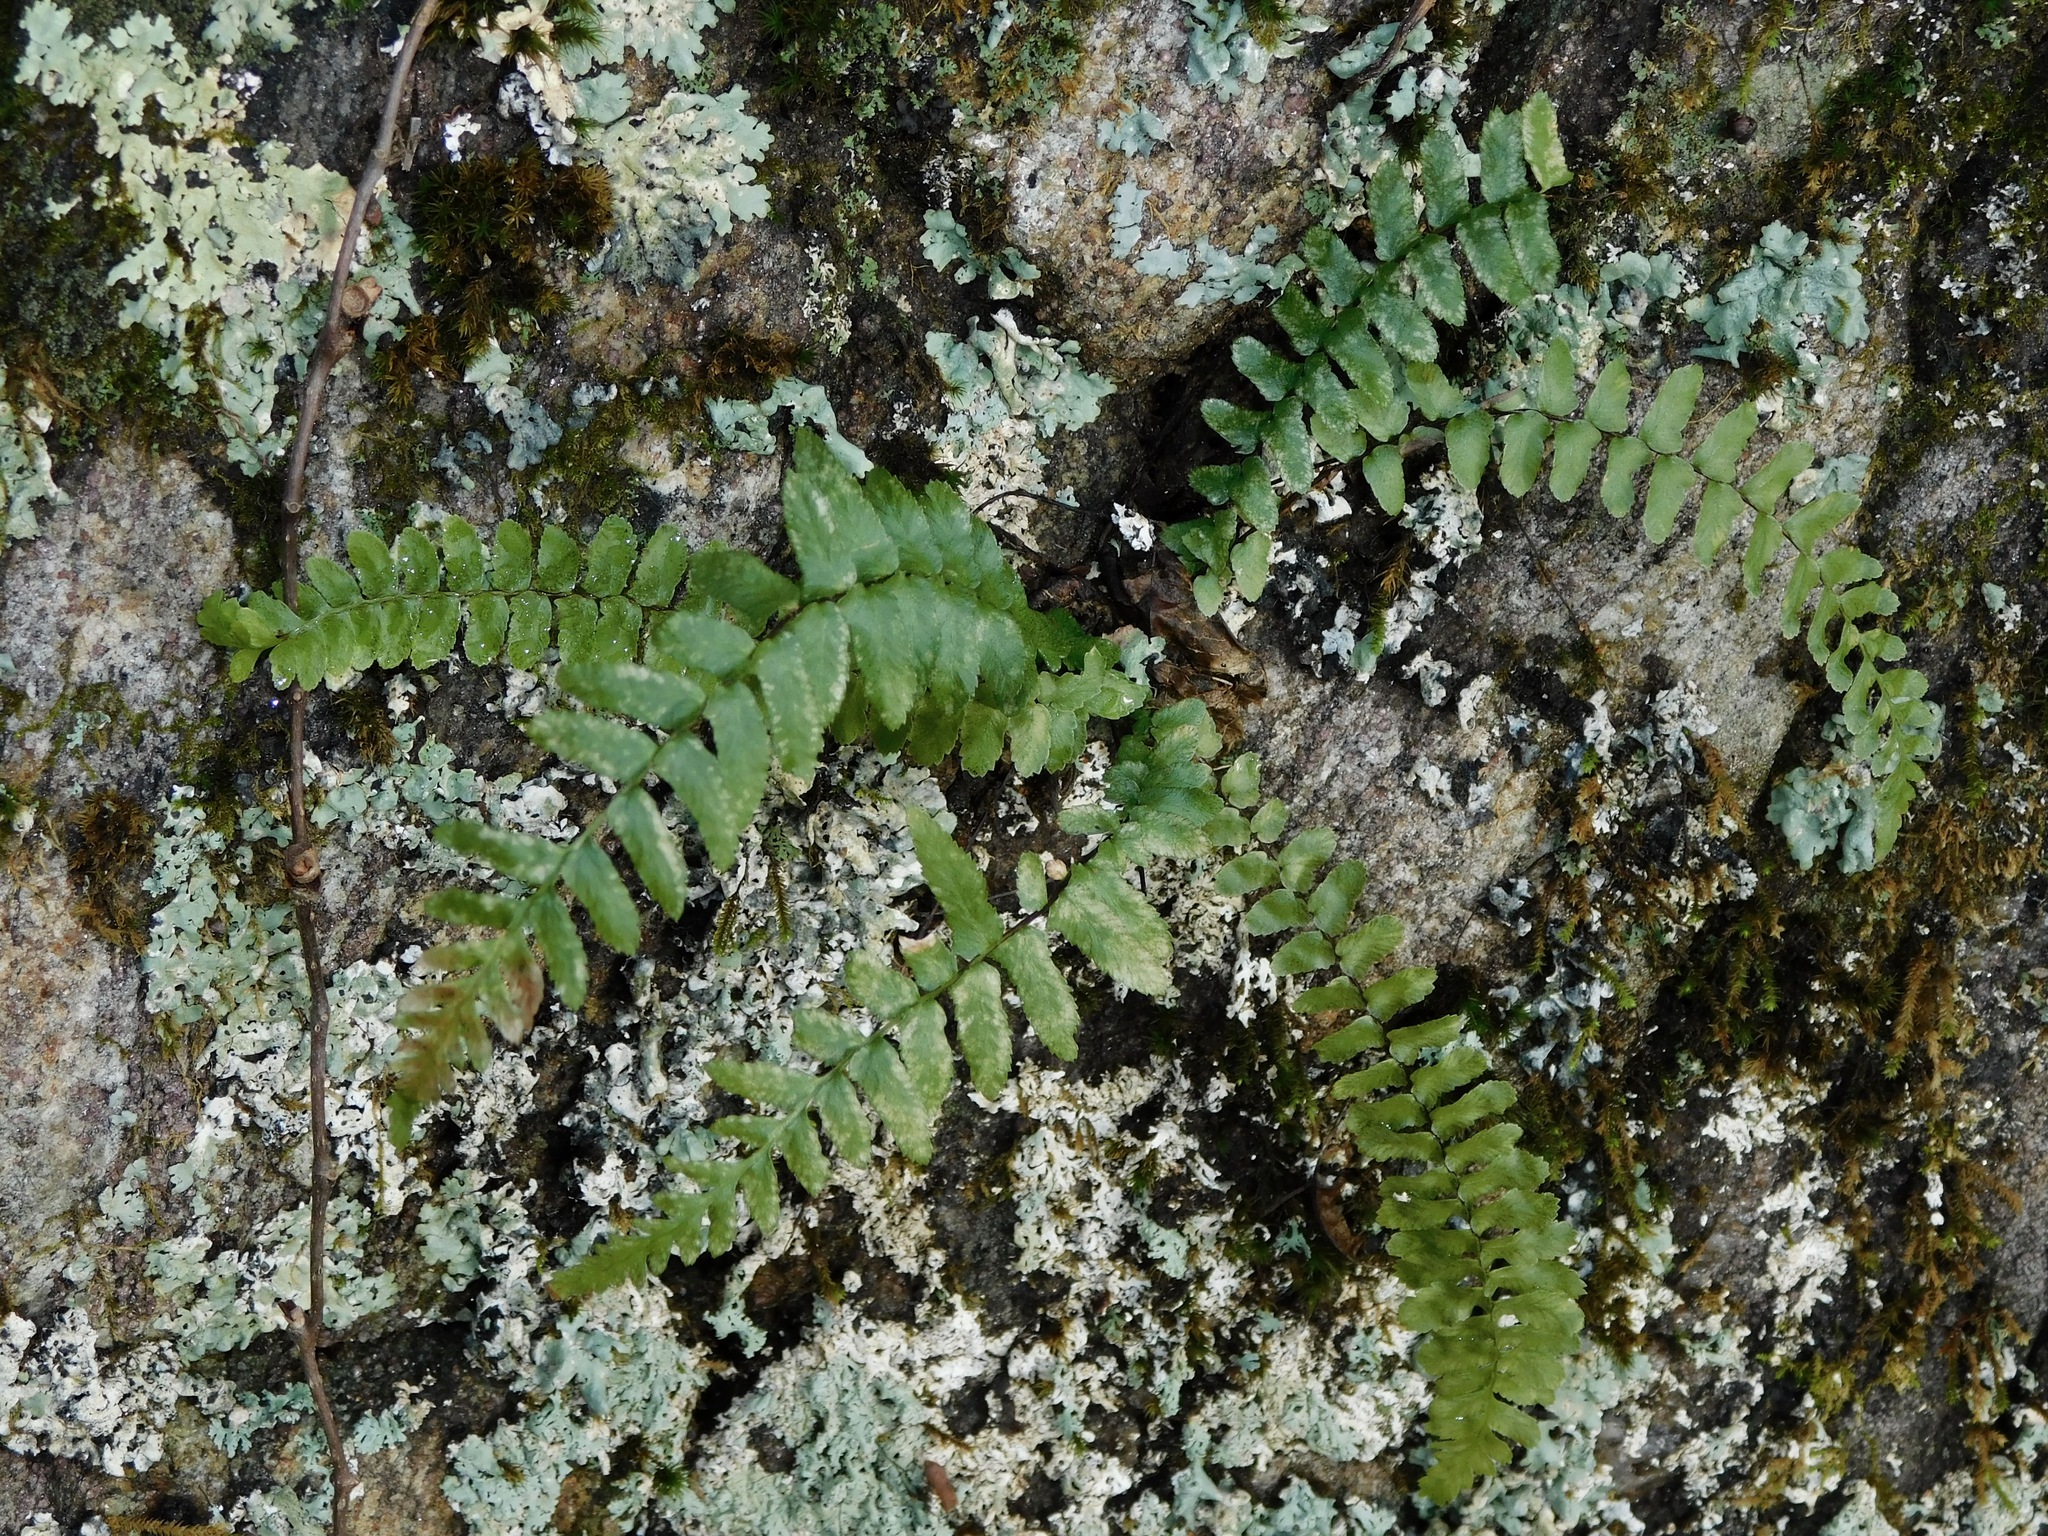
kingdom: Plantae
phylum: Tracheophyta
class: Polypodiopsida
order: Polypodiales
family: Aspleniaceae
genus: Asplenium
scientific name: Asplenium platyneuron
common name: Ebony spleenwort
